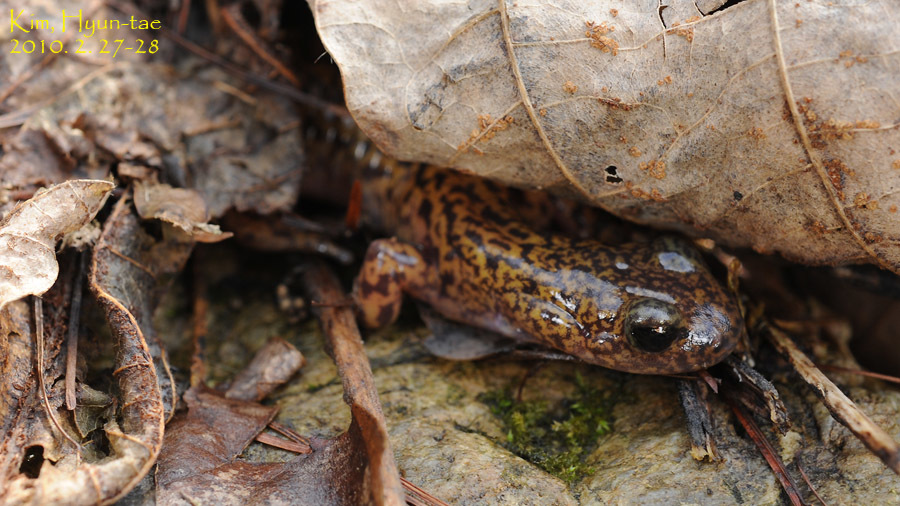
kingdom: Animalia
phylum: Chordata
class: Amphibia
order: Caudata
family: Hynobiidae
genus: Onychodactylus
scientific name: Onychodactylus koreanus
